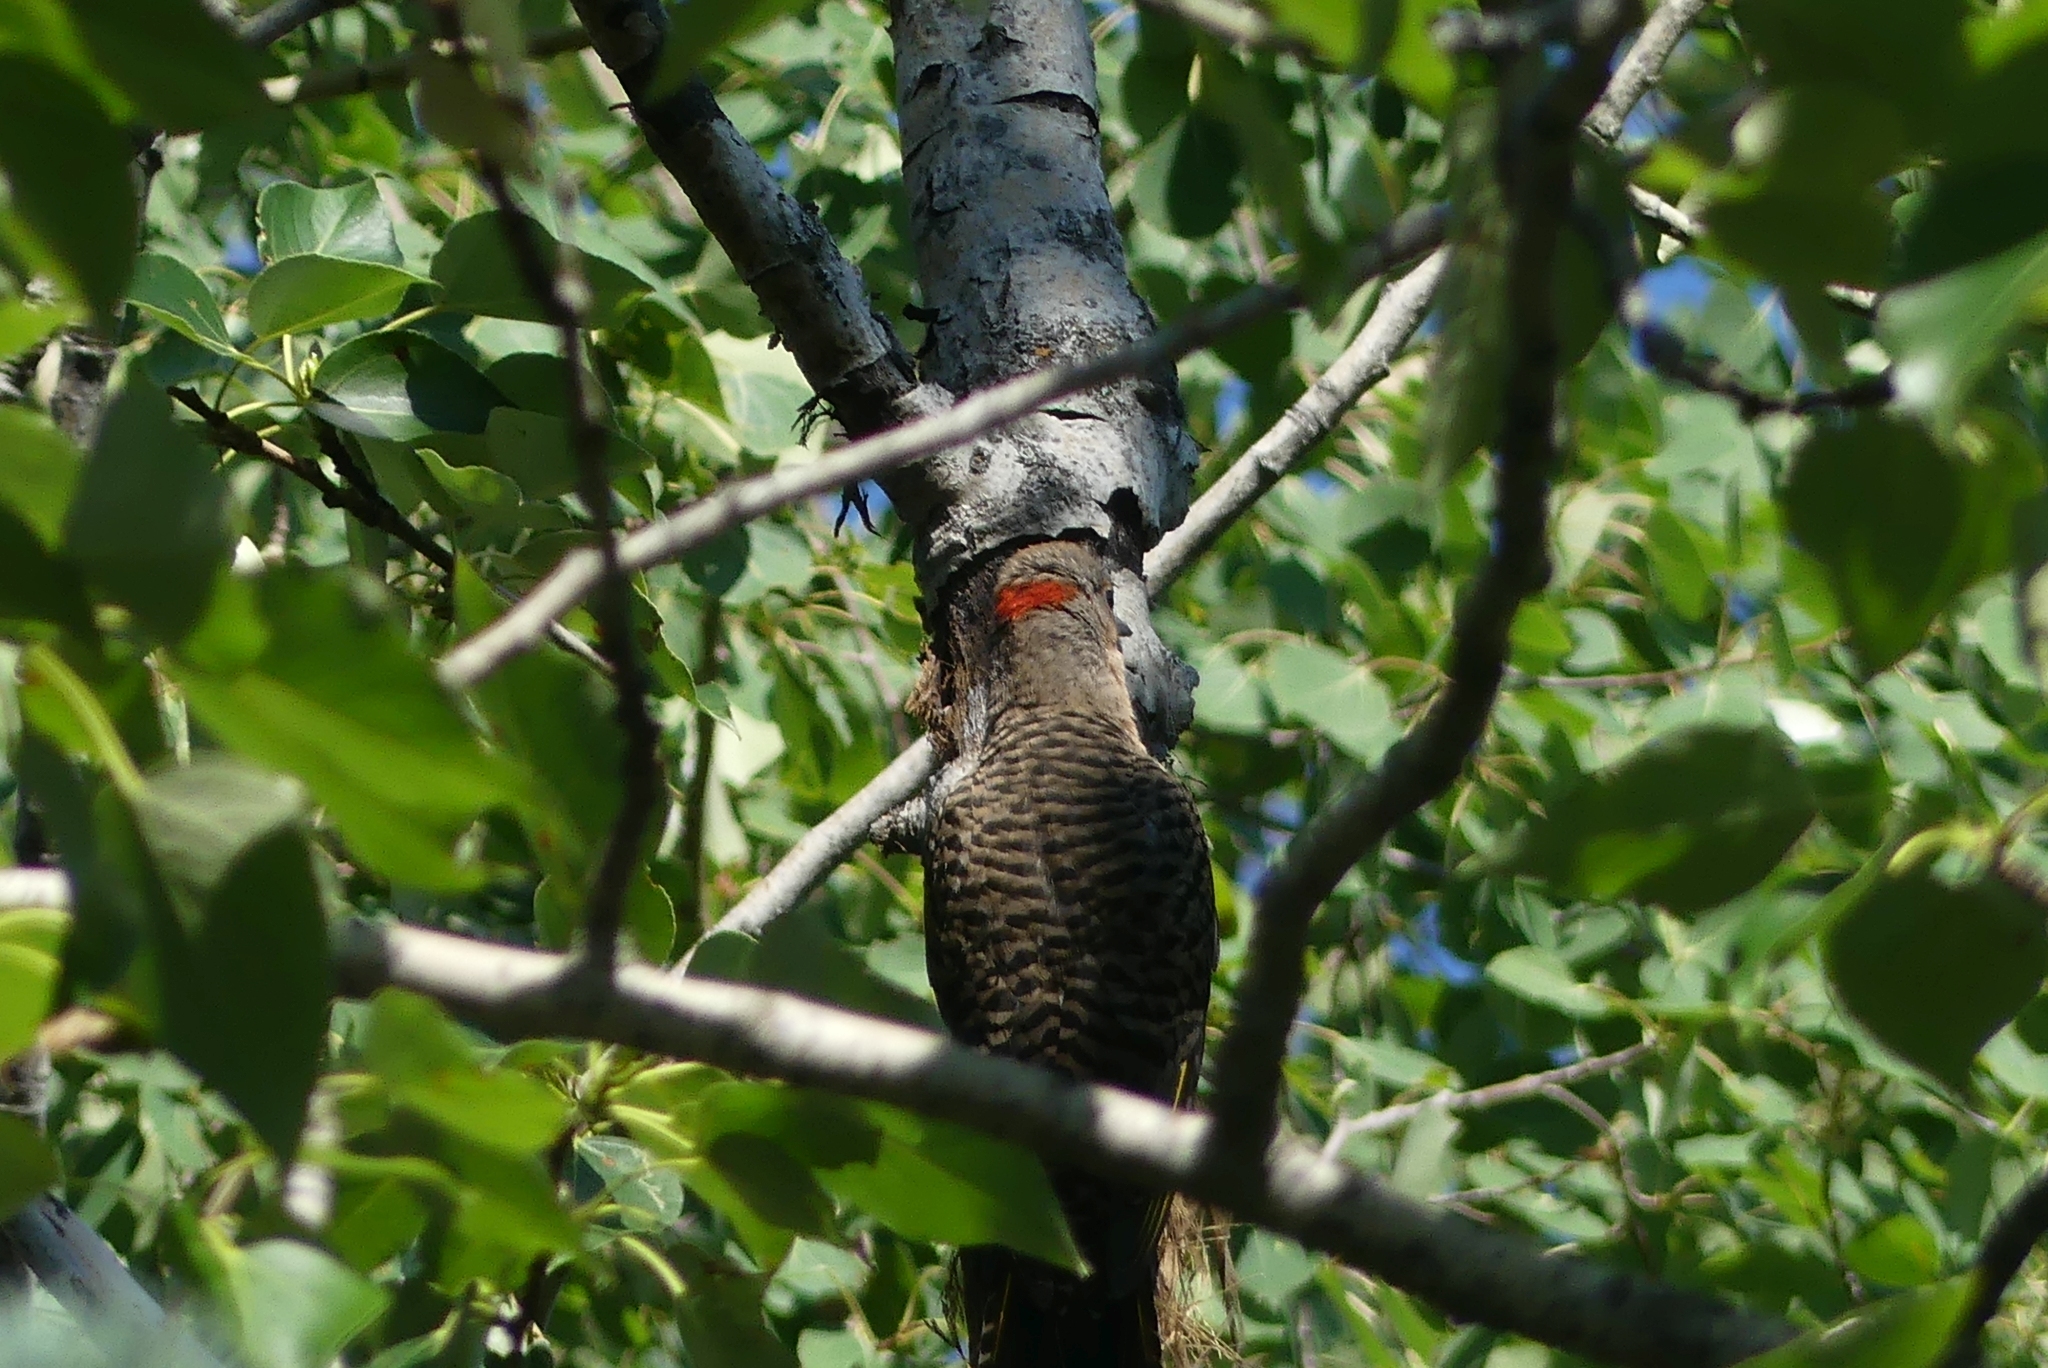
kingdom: Animalia
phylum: Chordata
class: Aves
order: Piciformes
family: Picidae
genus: Colaptes
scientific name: Colaptes auratus
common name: Northern flicker
